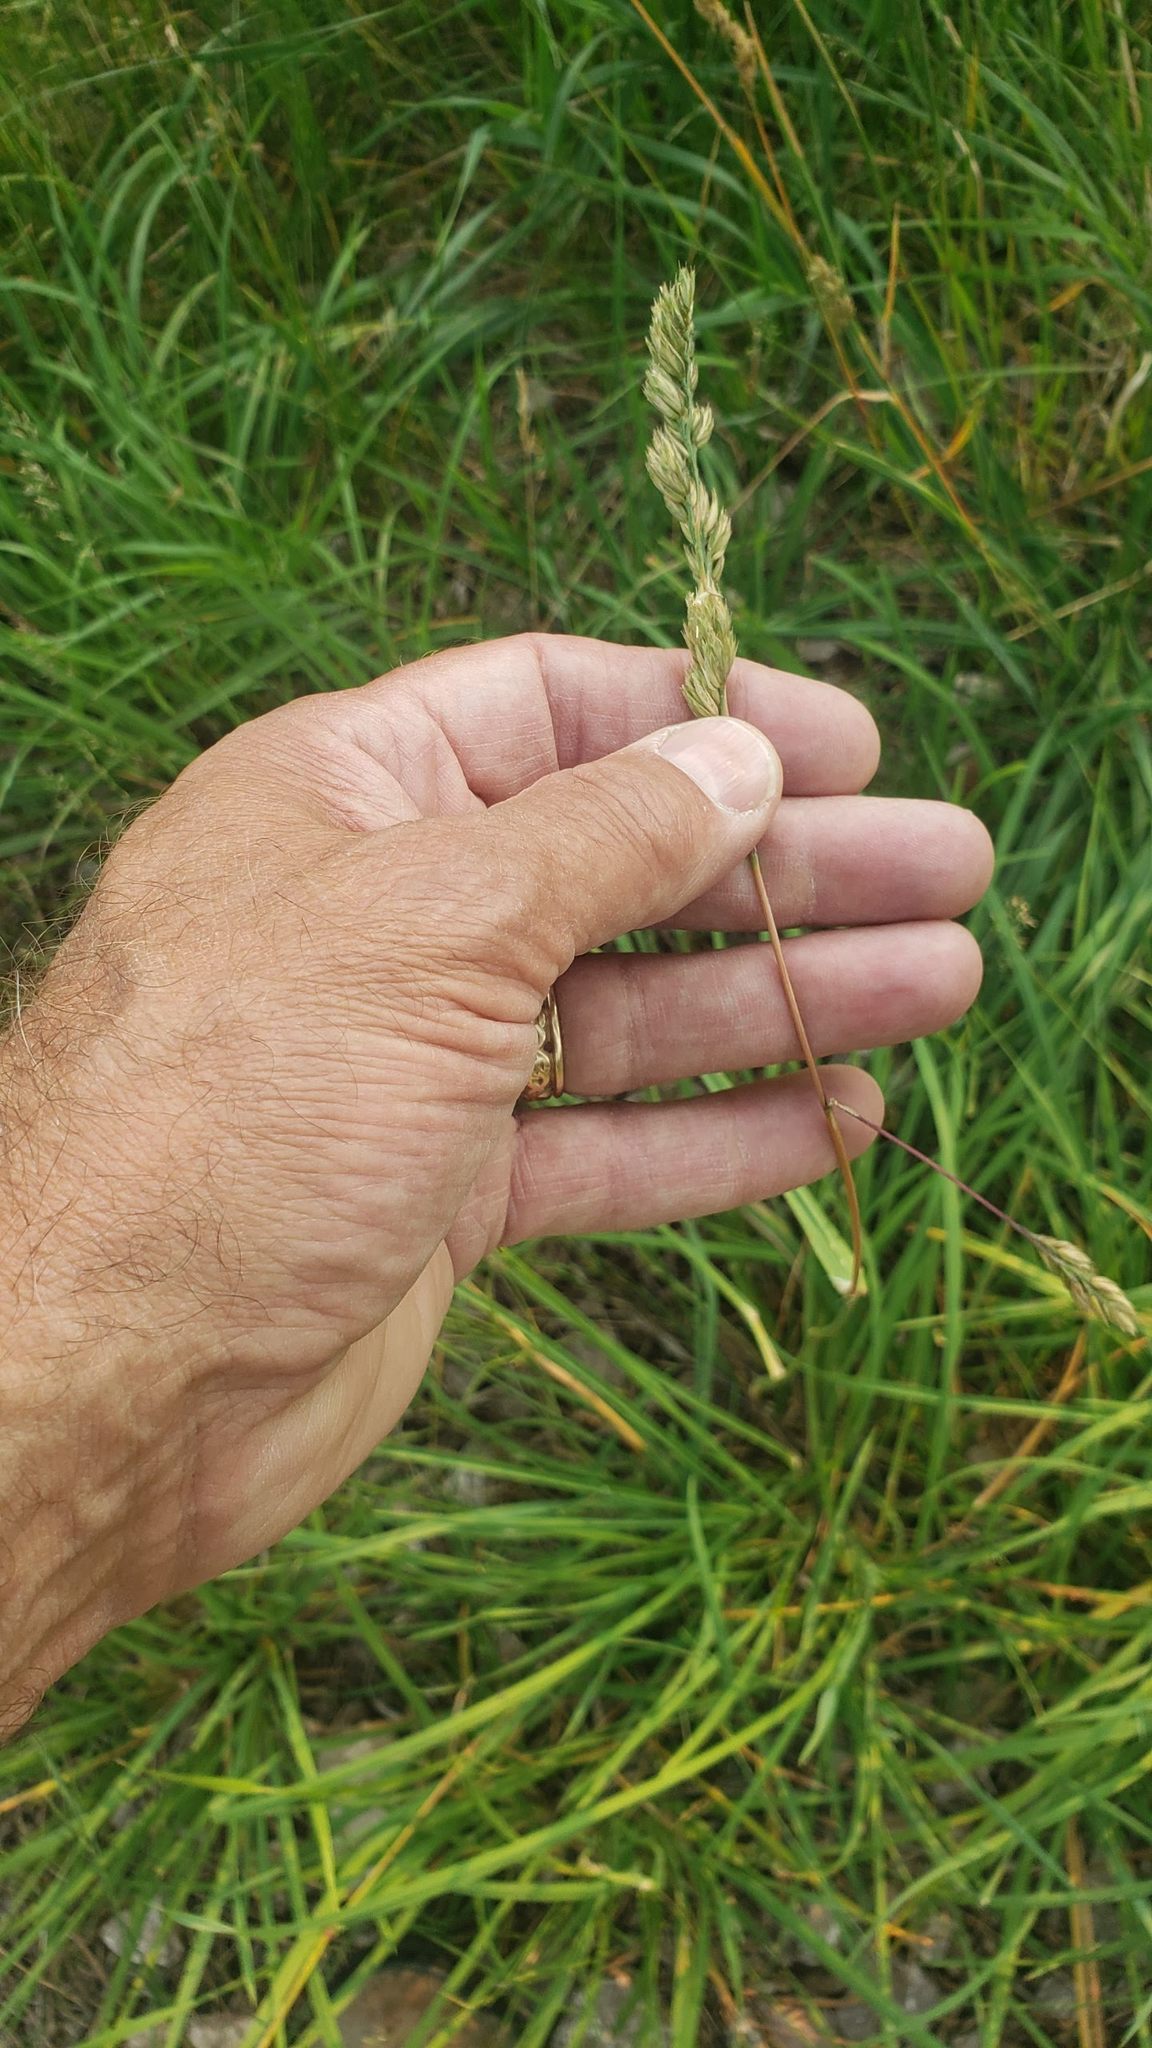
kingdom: Plantae
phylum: Tracheophyta
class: Liliopsida
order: Poales
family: Poaceae
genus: Dactylis
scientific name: Dactylis glomerata
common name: Orchardgrass
